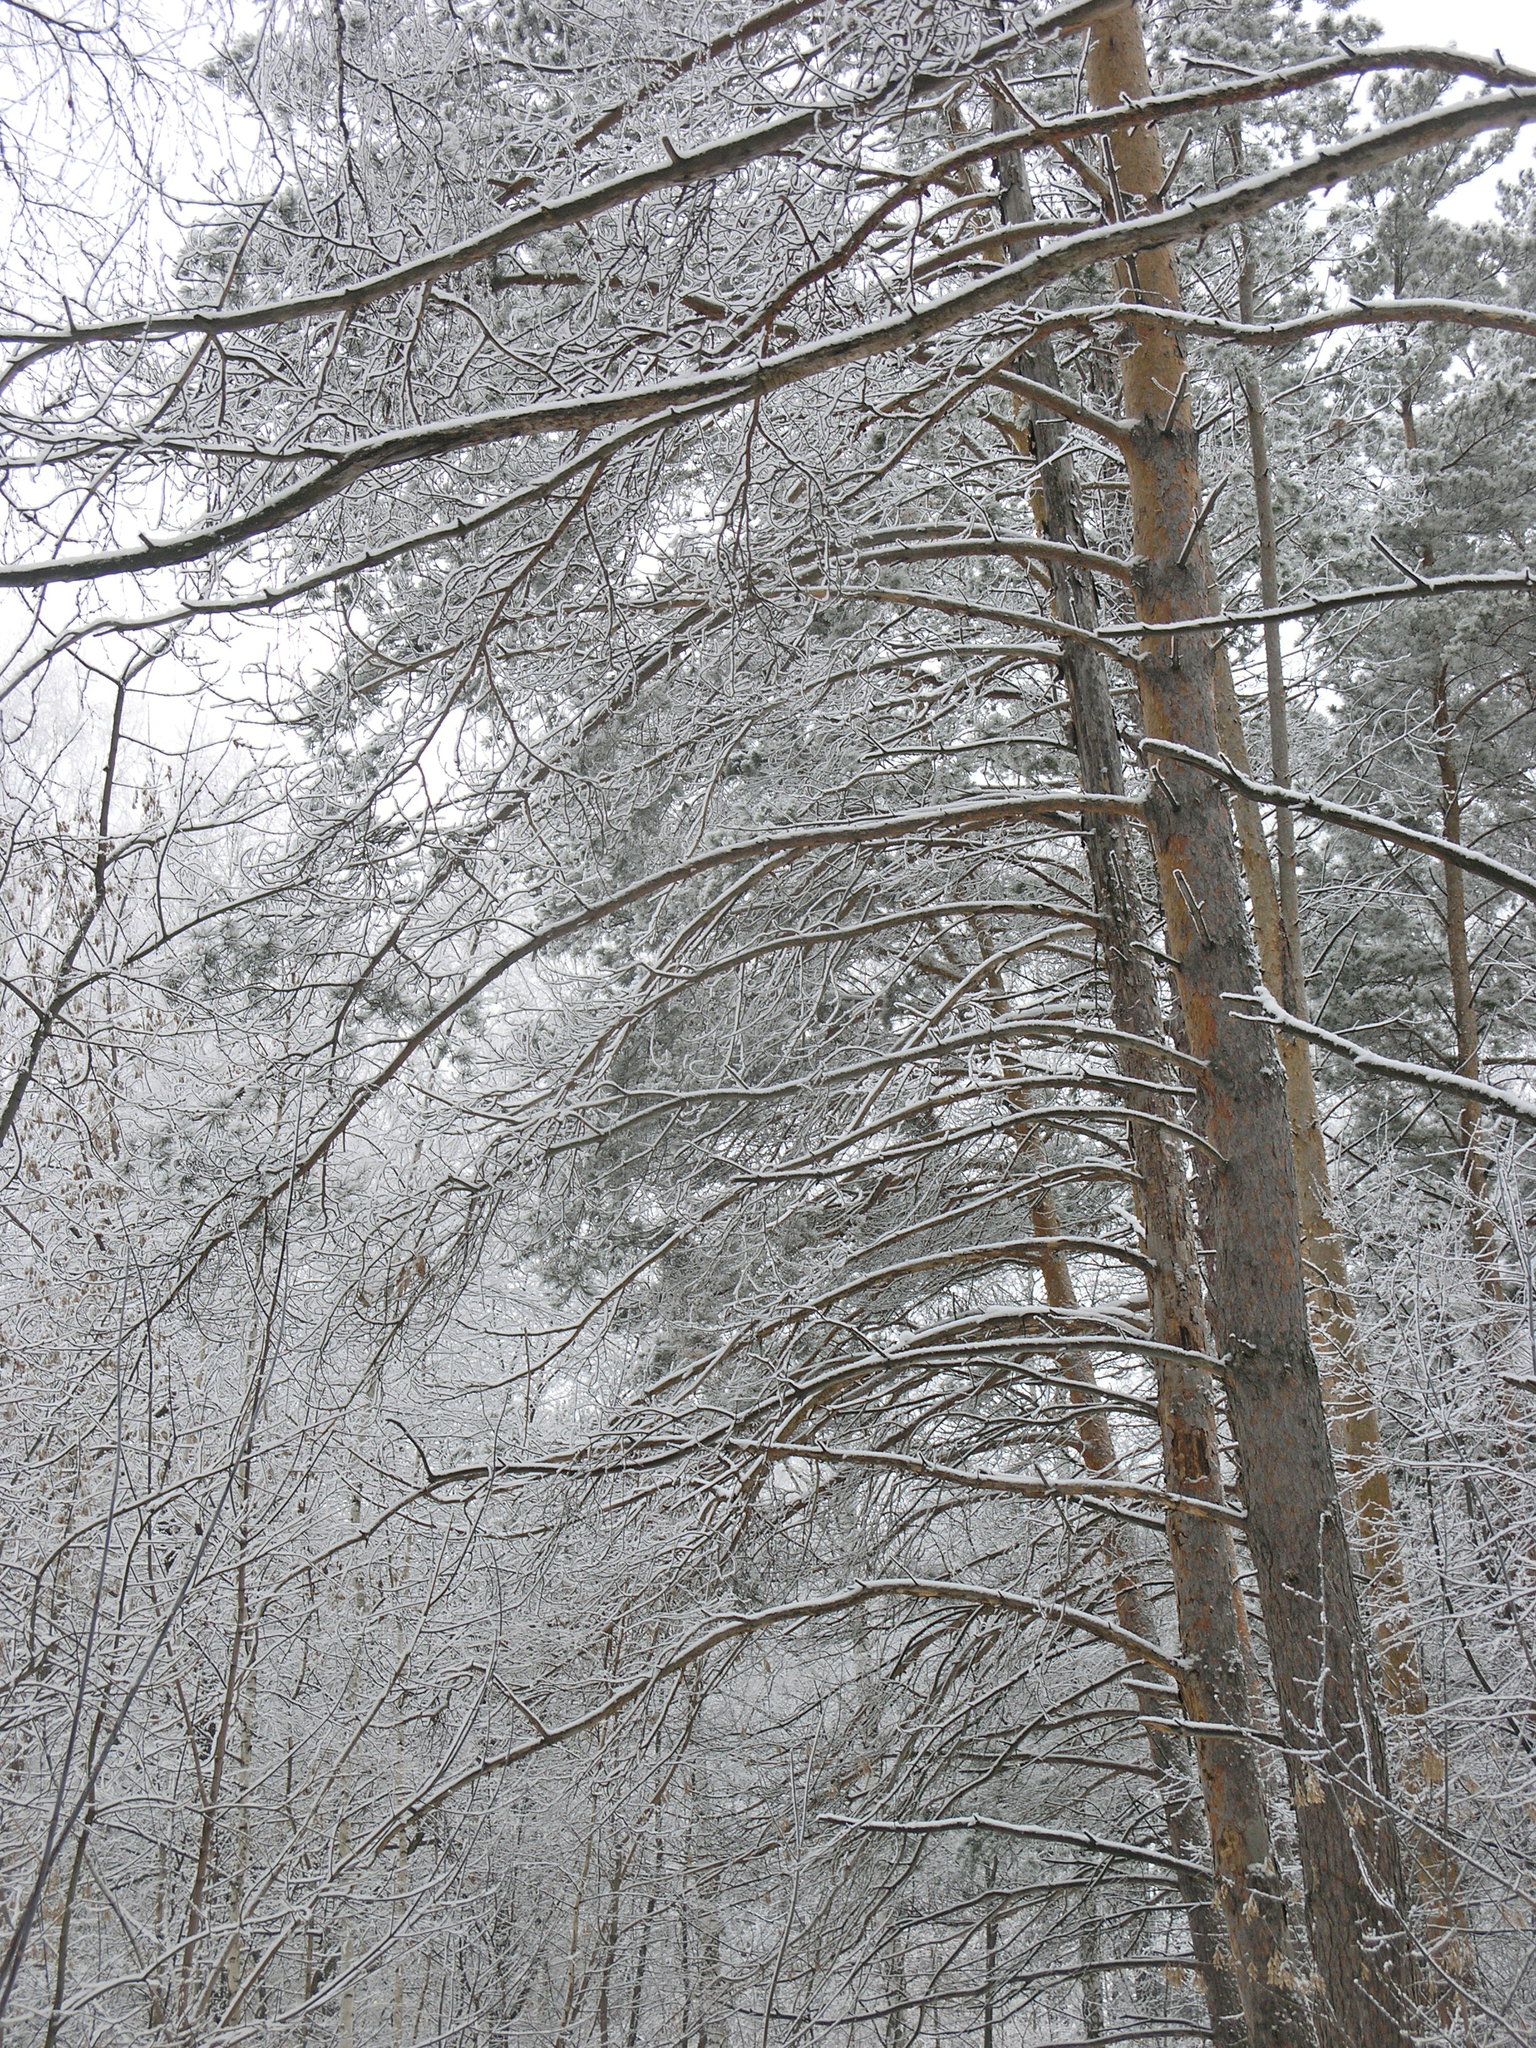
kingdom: Plantae
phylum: Tracheophyta
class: Pinopsida
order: Pinales
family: Pinaceae
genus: Pinus
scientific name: Pinus sylvestris
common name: Scots pine
